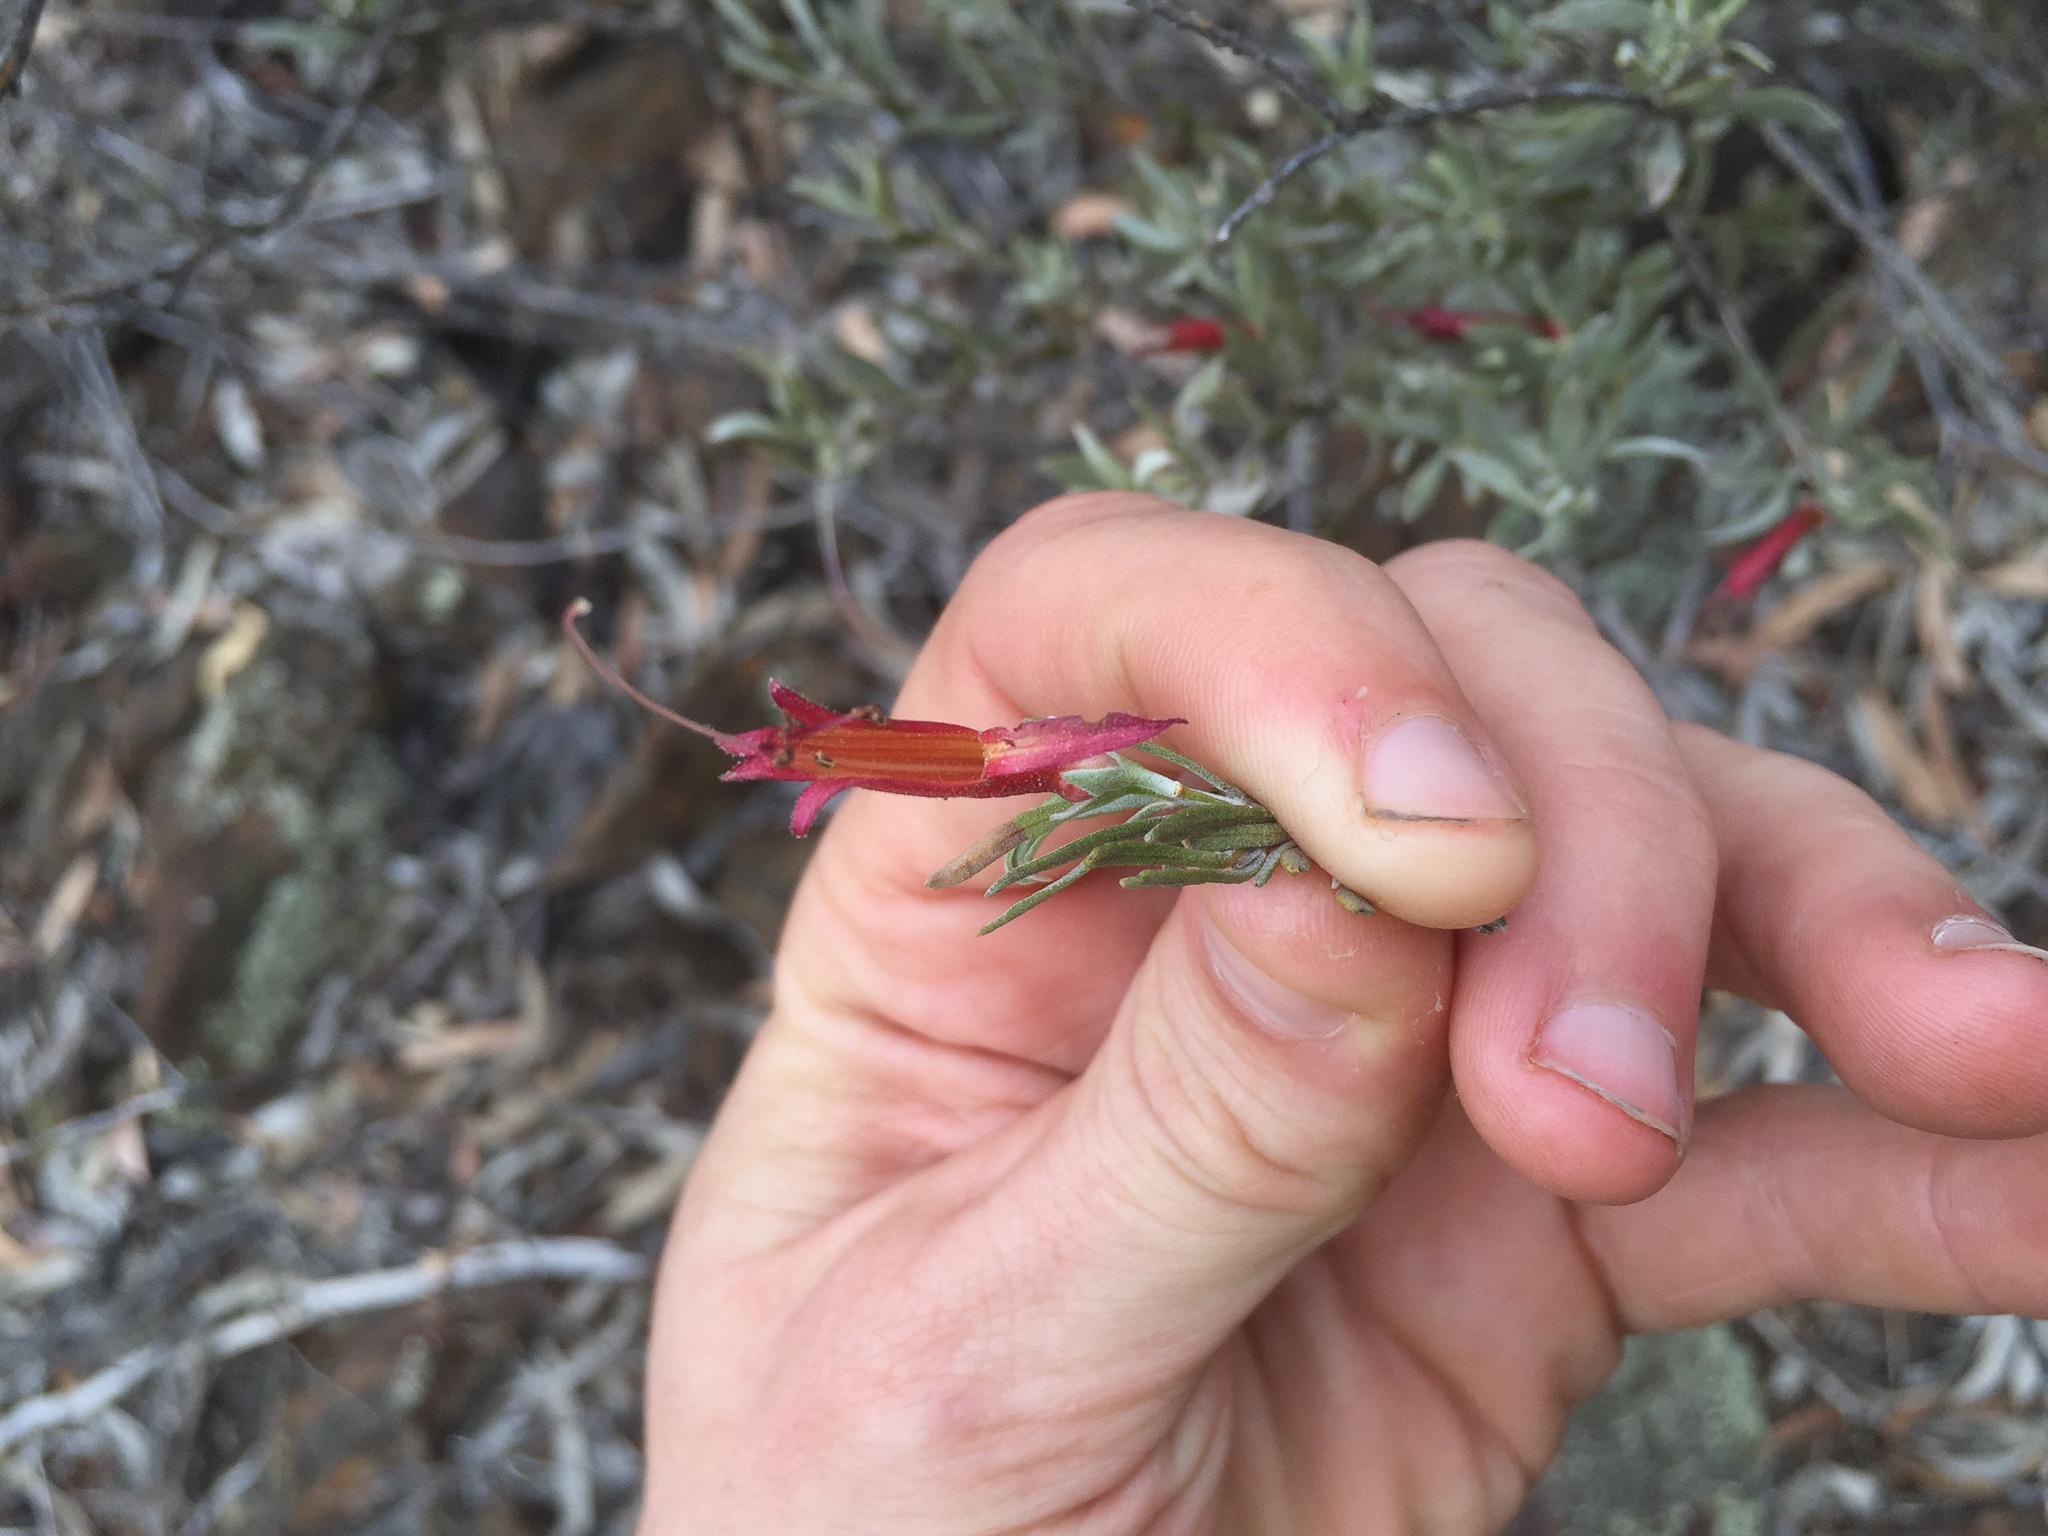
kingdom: Plantae
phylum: Tracheophyta
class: Magnoliopsida
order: Lamiales
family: Scrophulariaceae
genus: Eremophila
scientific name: Eremophila glabra
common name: Black-fuchsia
